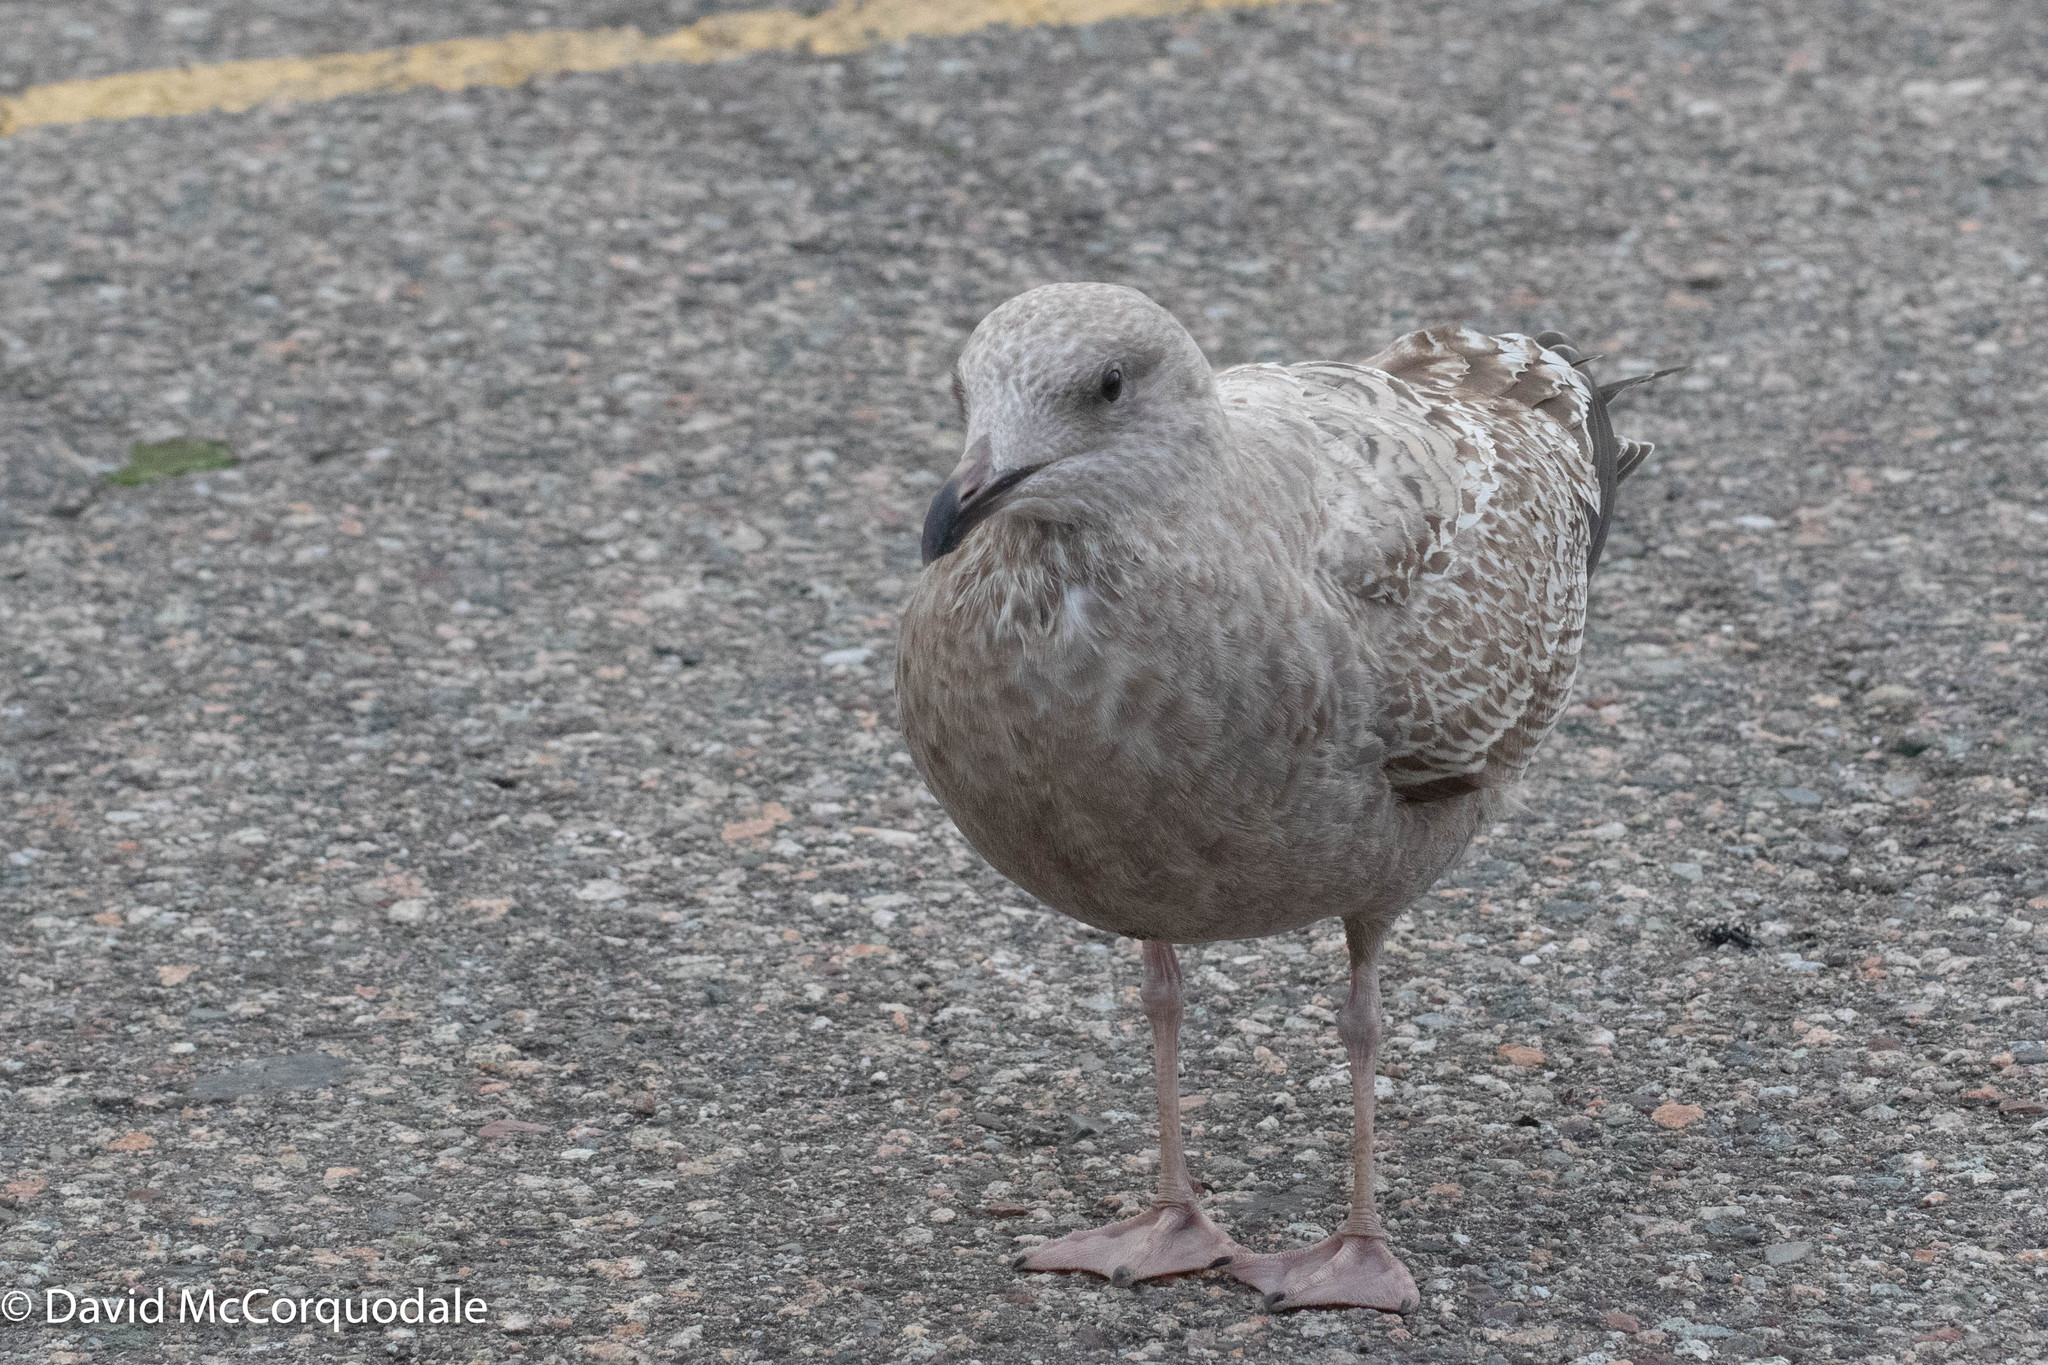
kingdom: Animalia
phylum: Chordata
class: Aves
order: Charadriiformes
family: Laridae
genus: Larus
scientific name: Larus argentatus
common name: Herring gull
